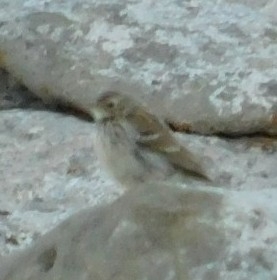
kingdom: Animalia
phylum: Chordata
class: Aves
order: Passeriformes
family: Motacillidae
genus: Anthus
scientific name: Anthus spinoletta
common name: Water pipit
